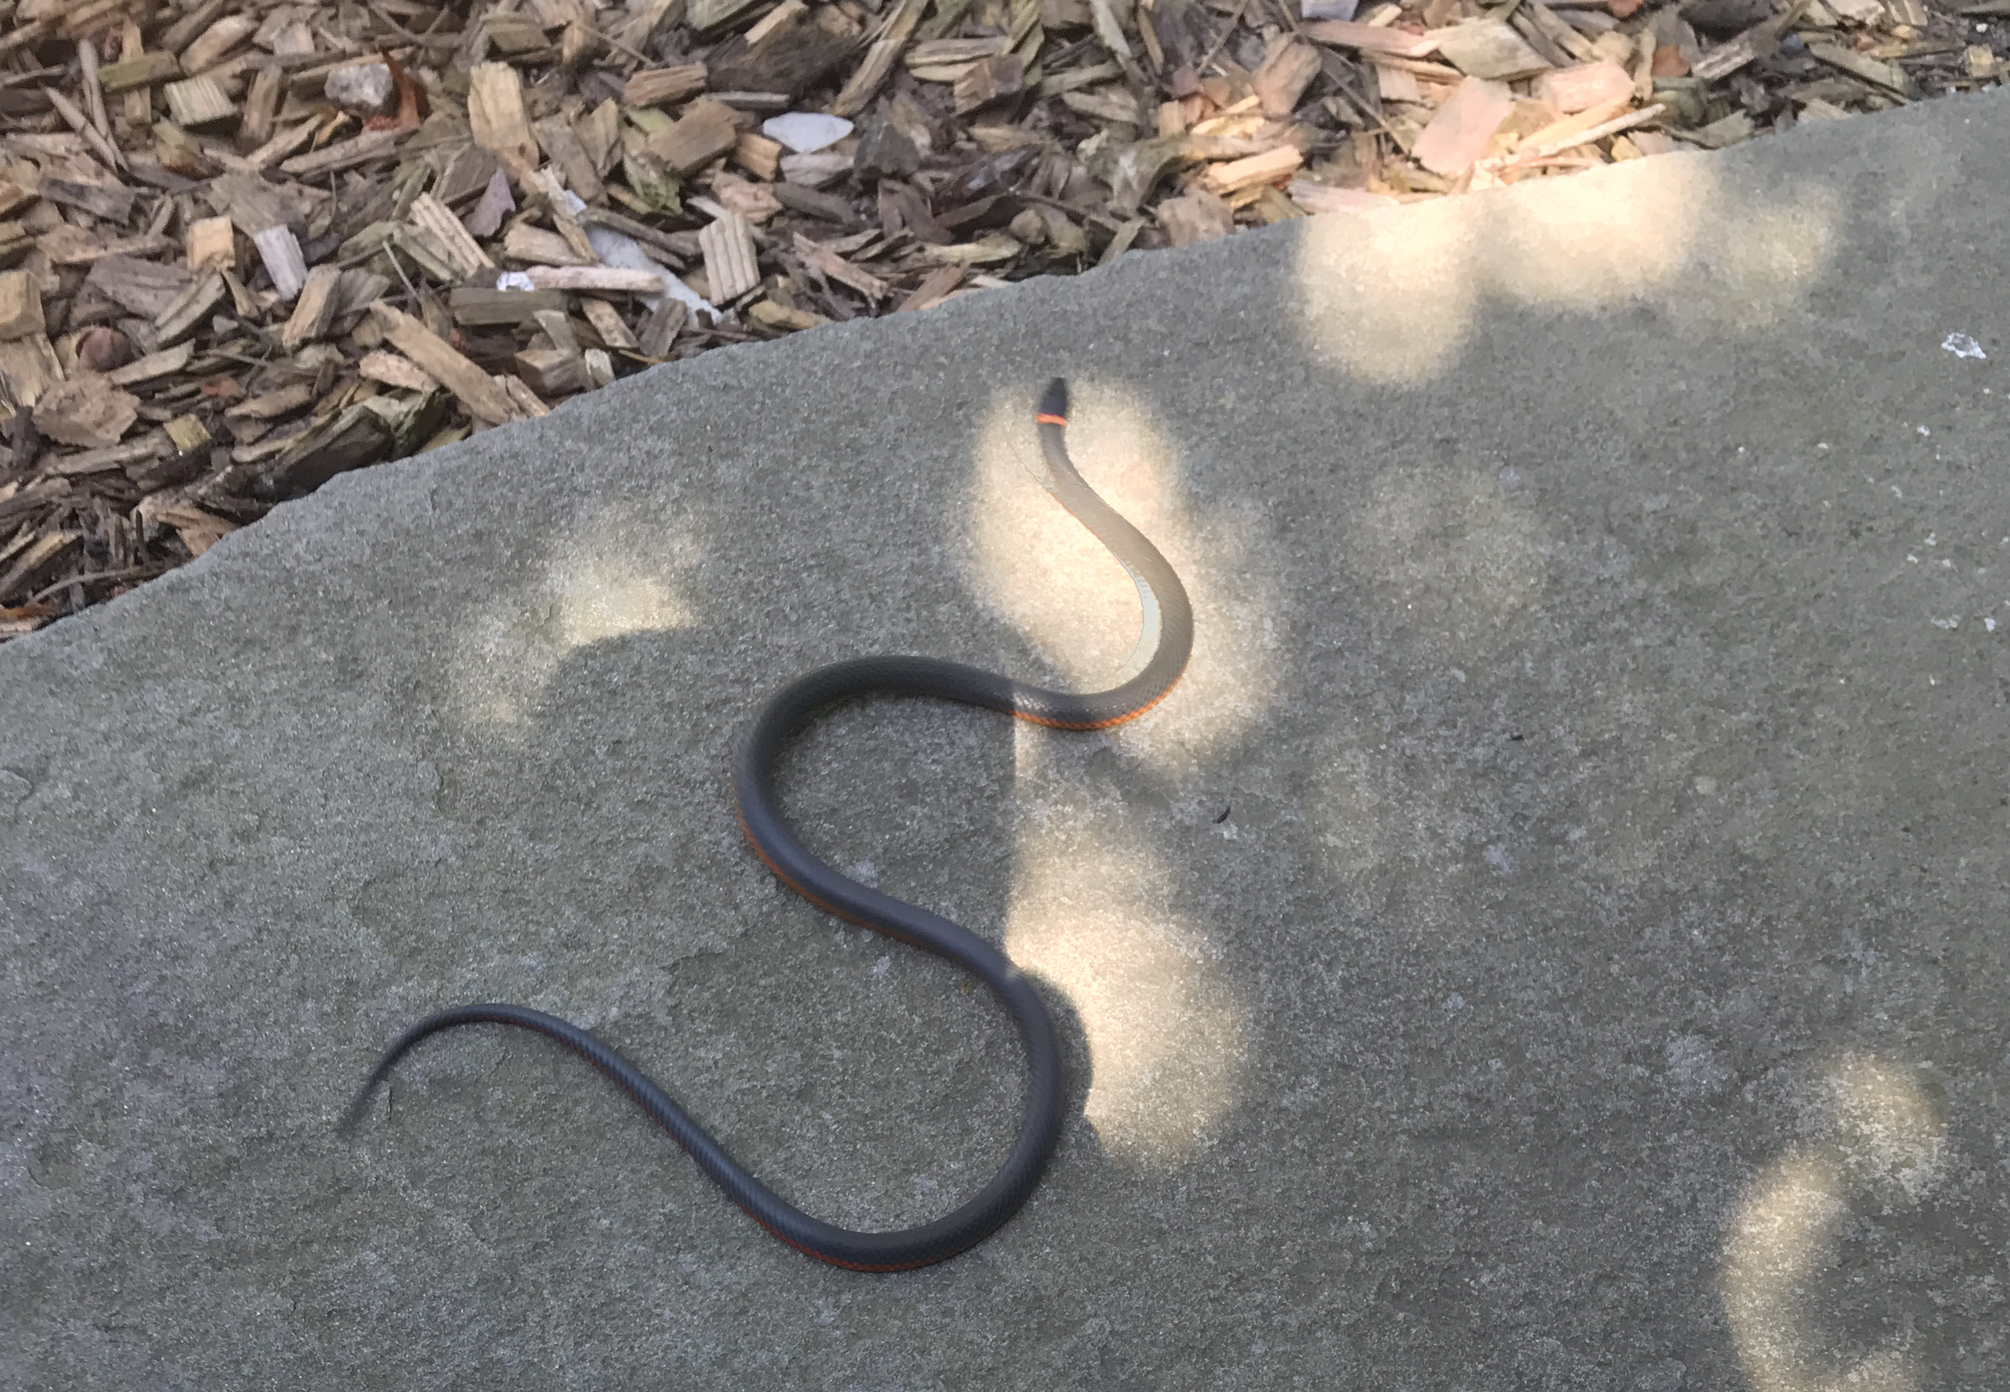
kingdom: Animalia
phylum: Chordata
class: Squamata
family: Colubridae
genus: Diadophis
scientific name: Diadophis punctatus
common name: Ringneck snake
